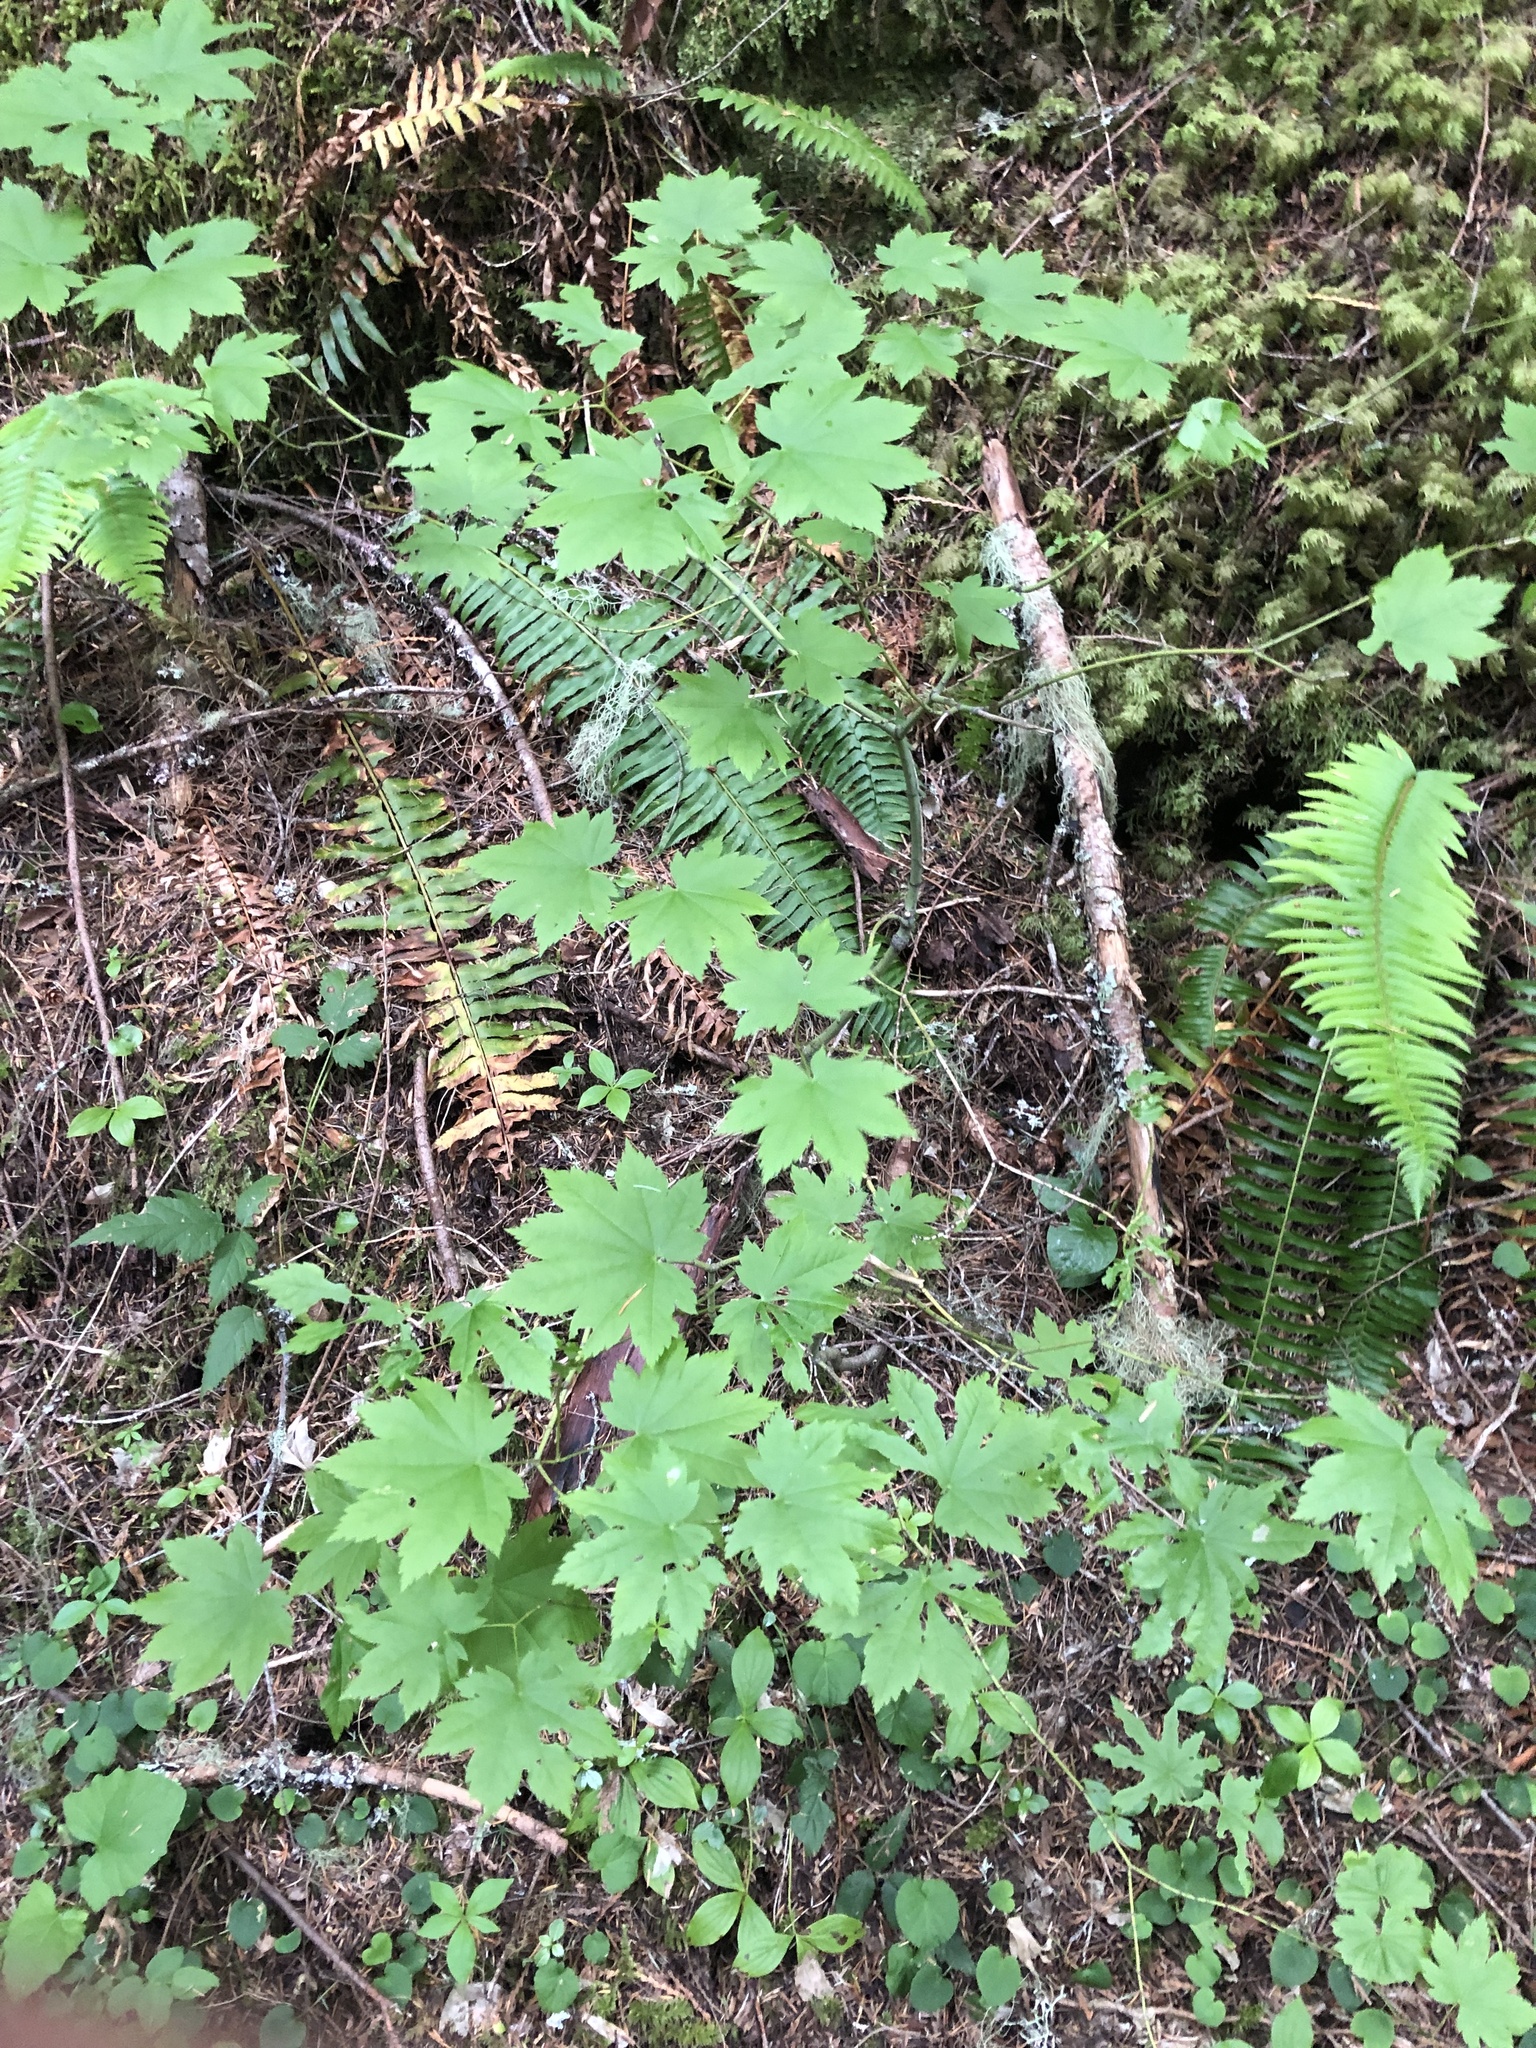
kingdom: Plantae
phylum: Tracheophyta
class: Magnoliopsida
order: Sapindales
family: Sapindaceae
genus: Acer
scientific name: Acer circinatum
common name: Vine maple
